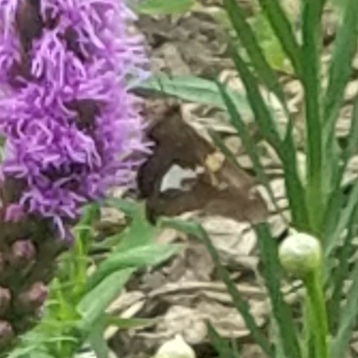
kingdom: Animalia
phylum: Arthropoda
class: Insecta
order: Lepidoptera
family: Hesperiidae
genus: Epargyreus
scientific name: Epargyreus clarus
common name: Silver-spotted skipper
